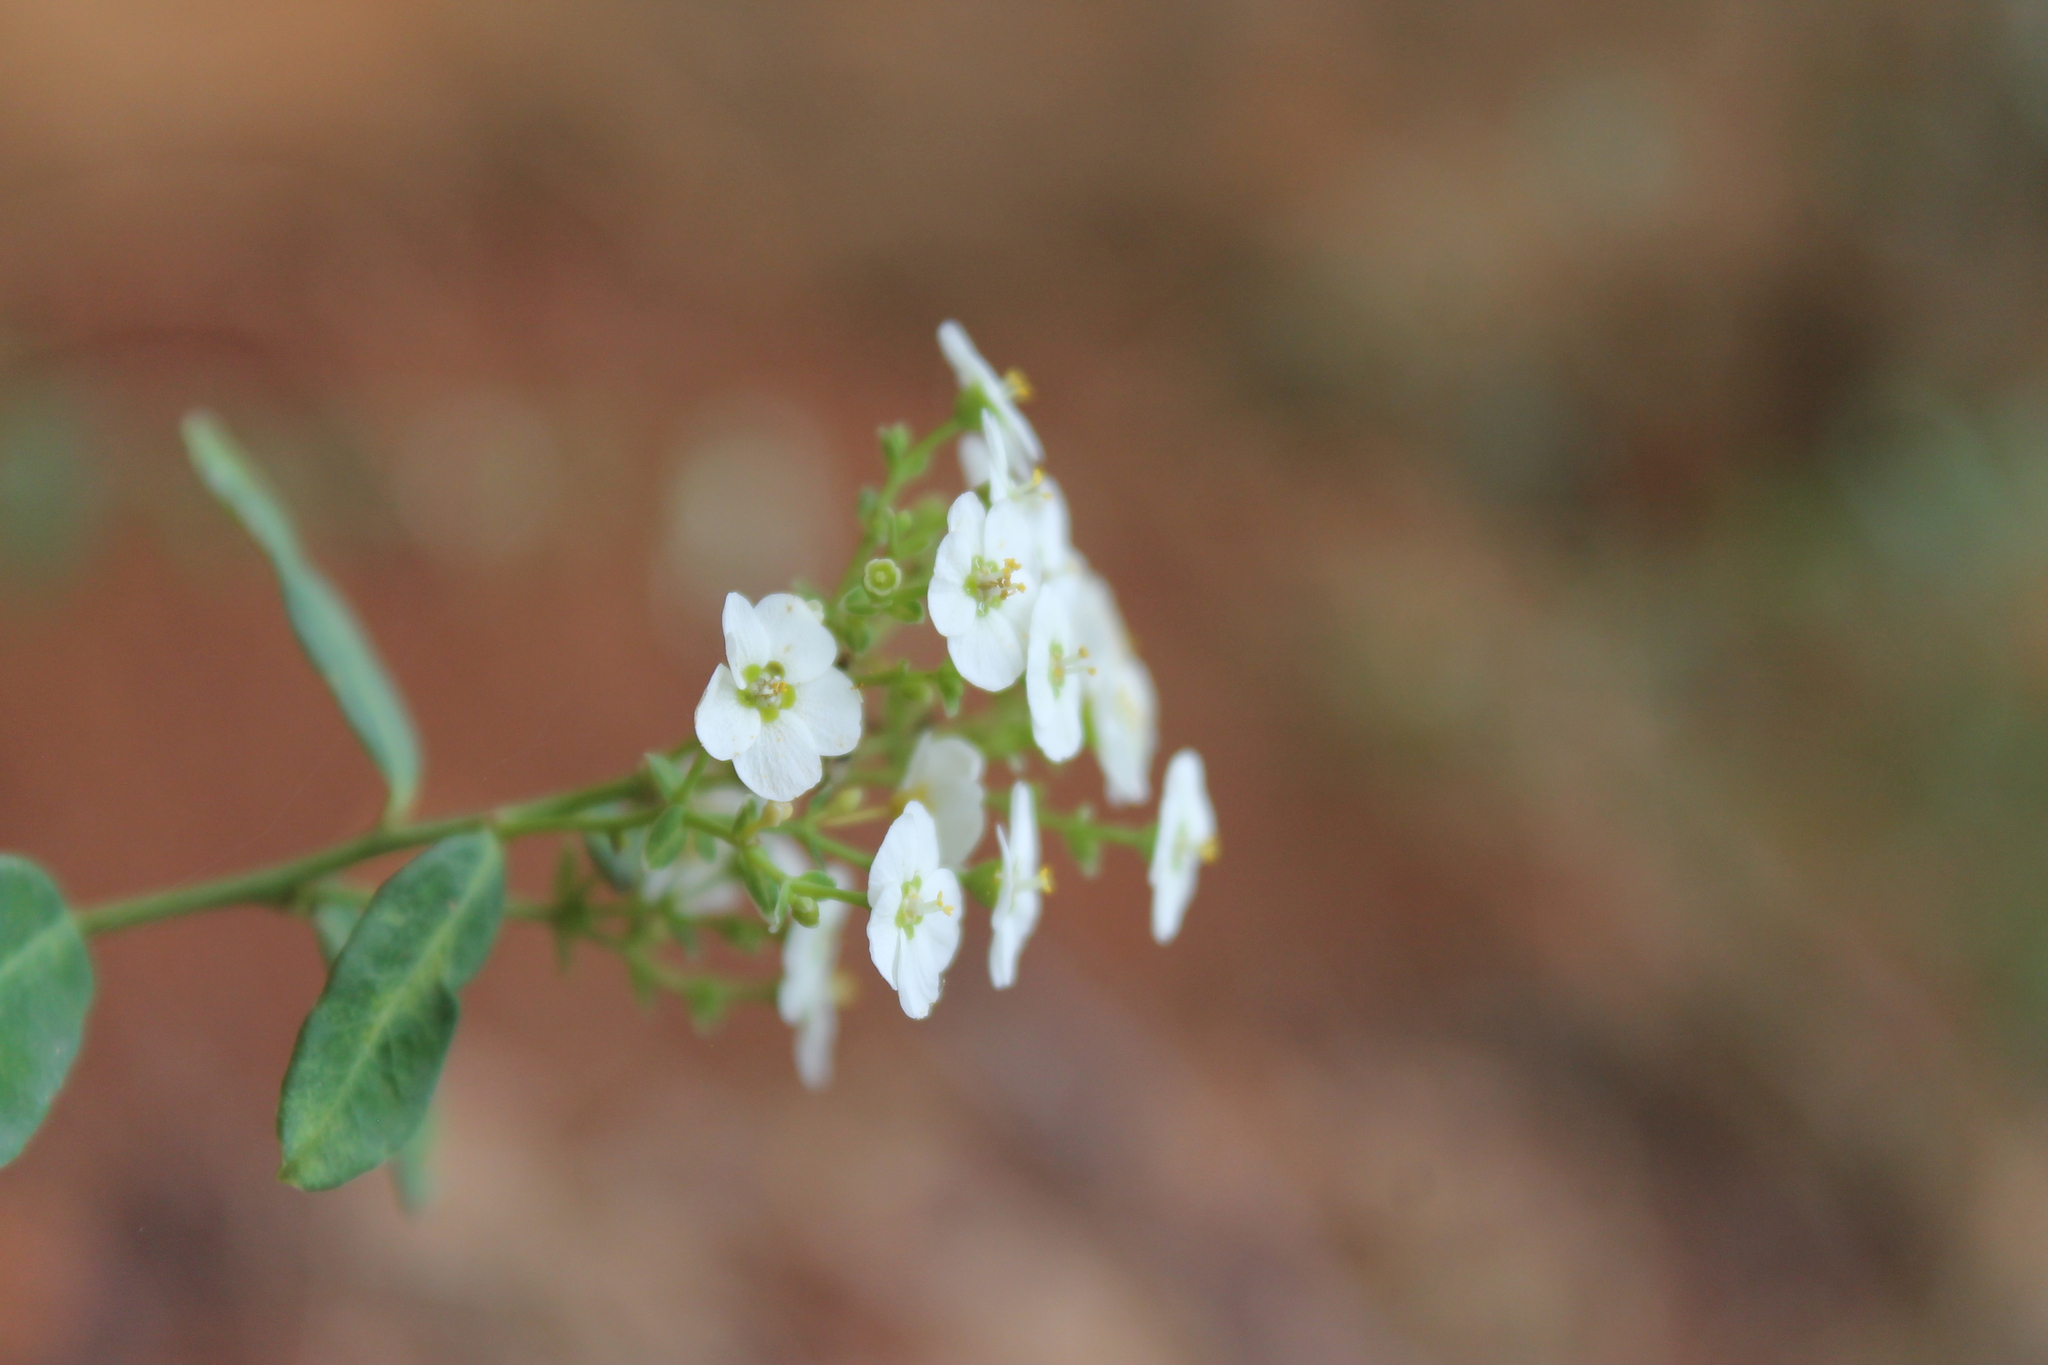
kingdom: Plantae
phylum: Tracheophyta
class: Magnoliopsida
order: Malpighiales
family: Euphorbiaceae
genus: Euphorbia
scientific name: Euphorbia corollata
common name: Flowering spurge
